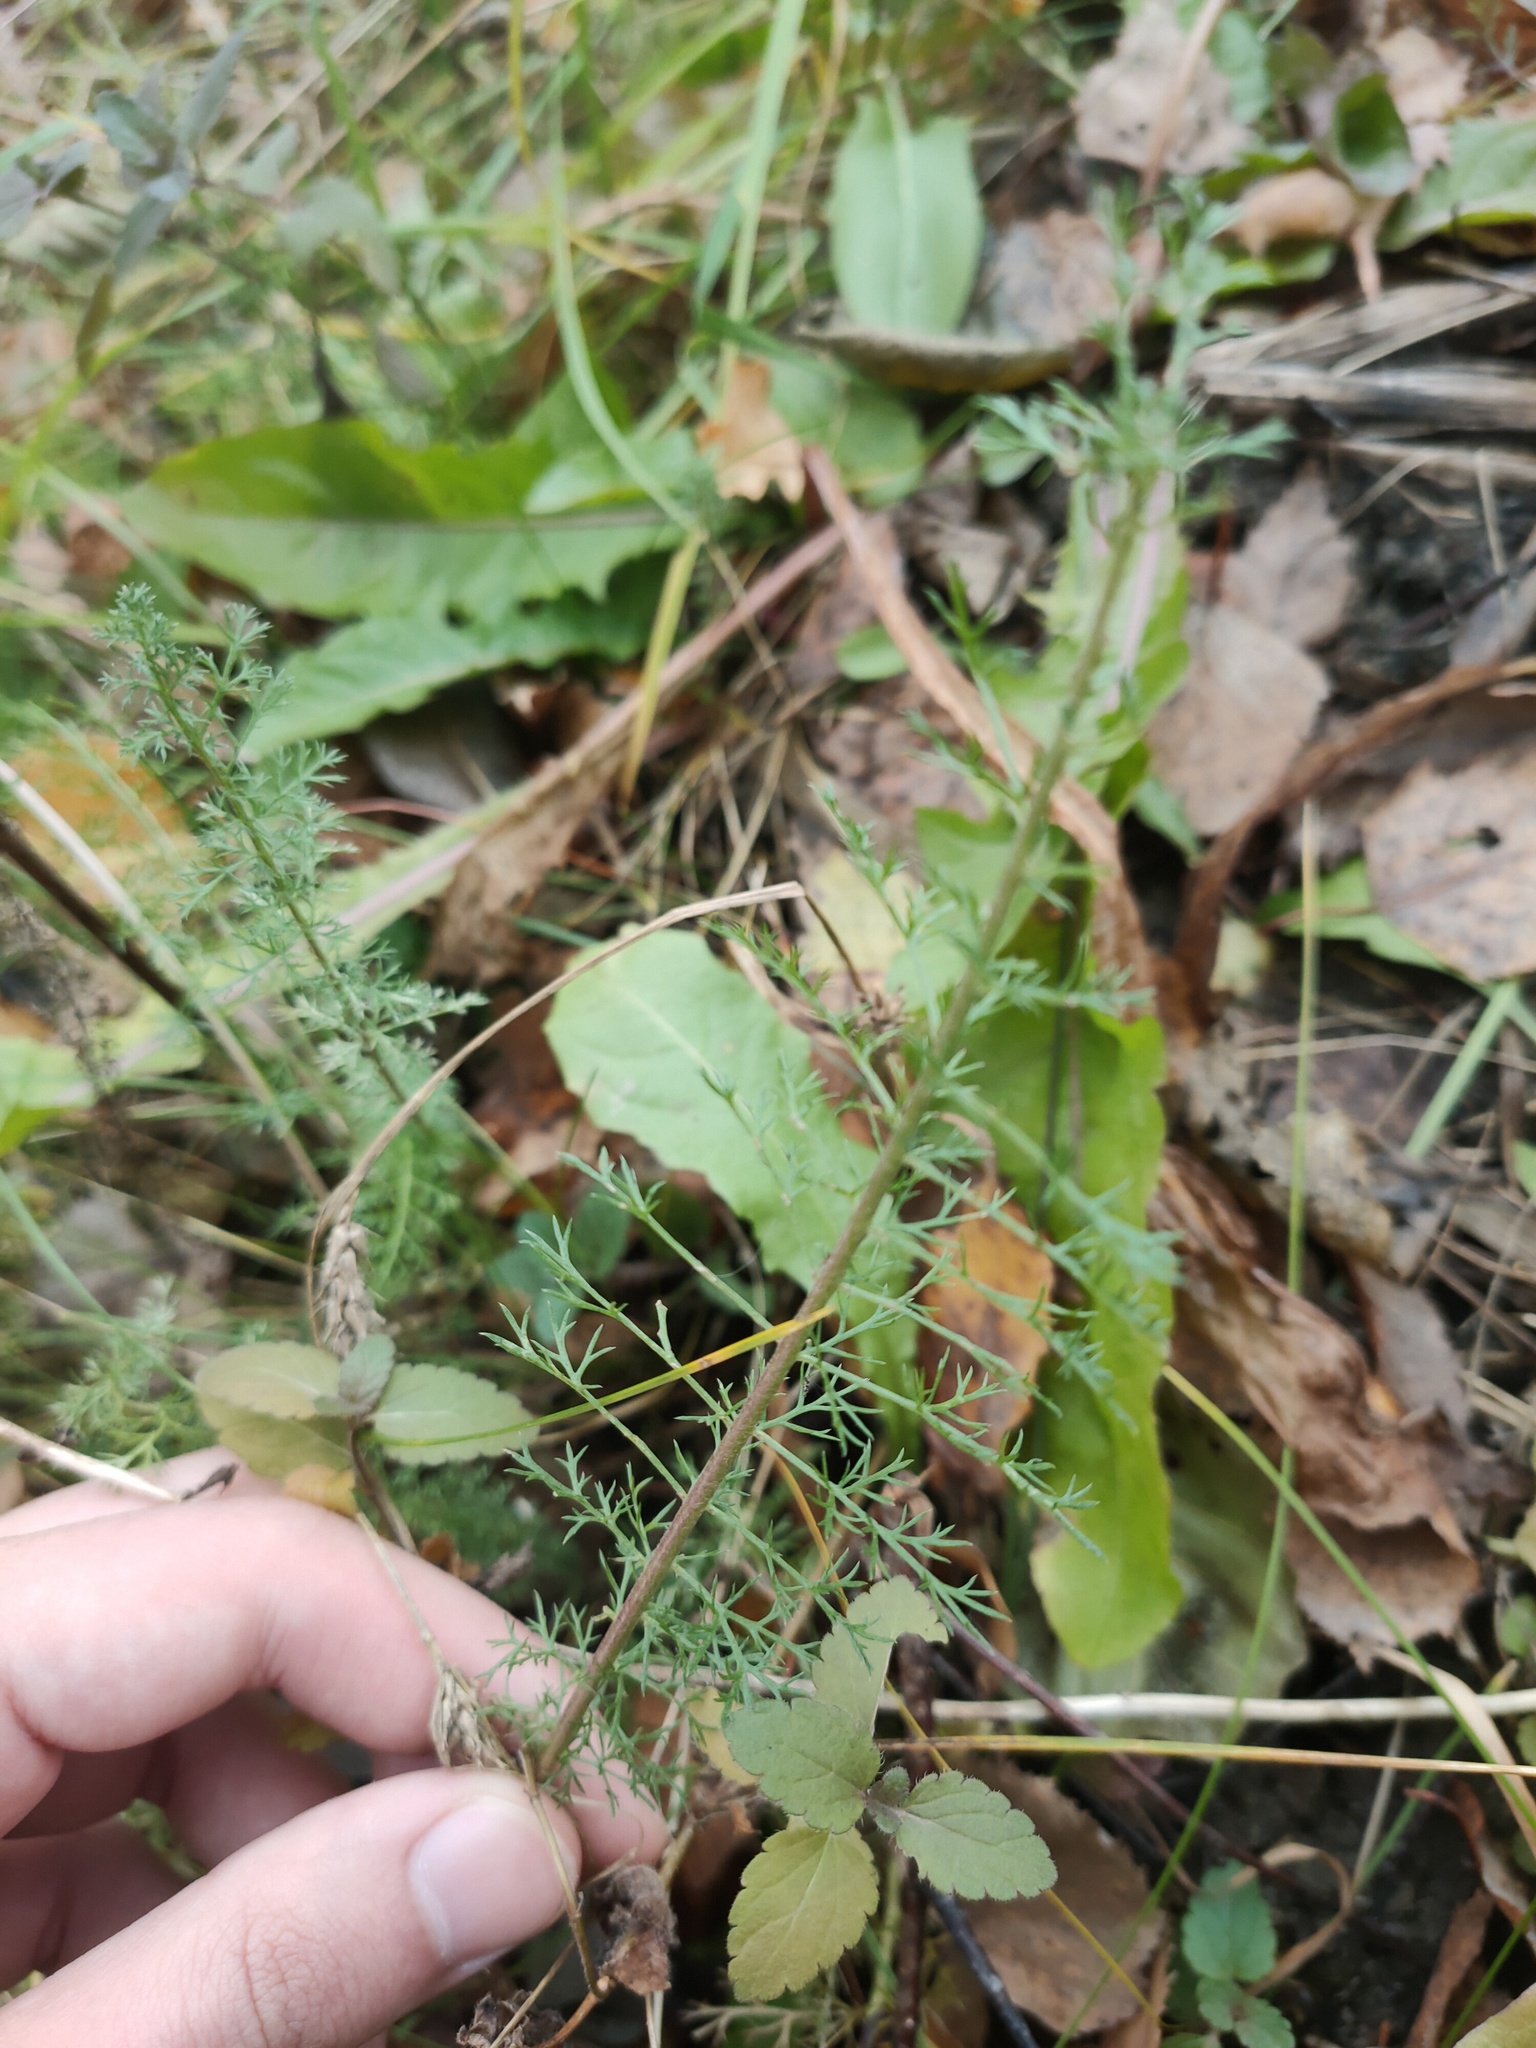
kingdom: Plantae
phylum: Tracheophyta
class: Magnoliopsida
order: Asterales
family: Asteraceae
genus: Achillea
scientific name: Achillea millefolium
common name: Yarrow
